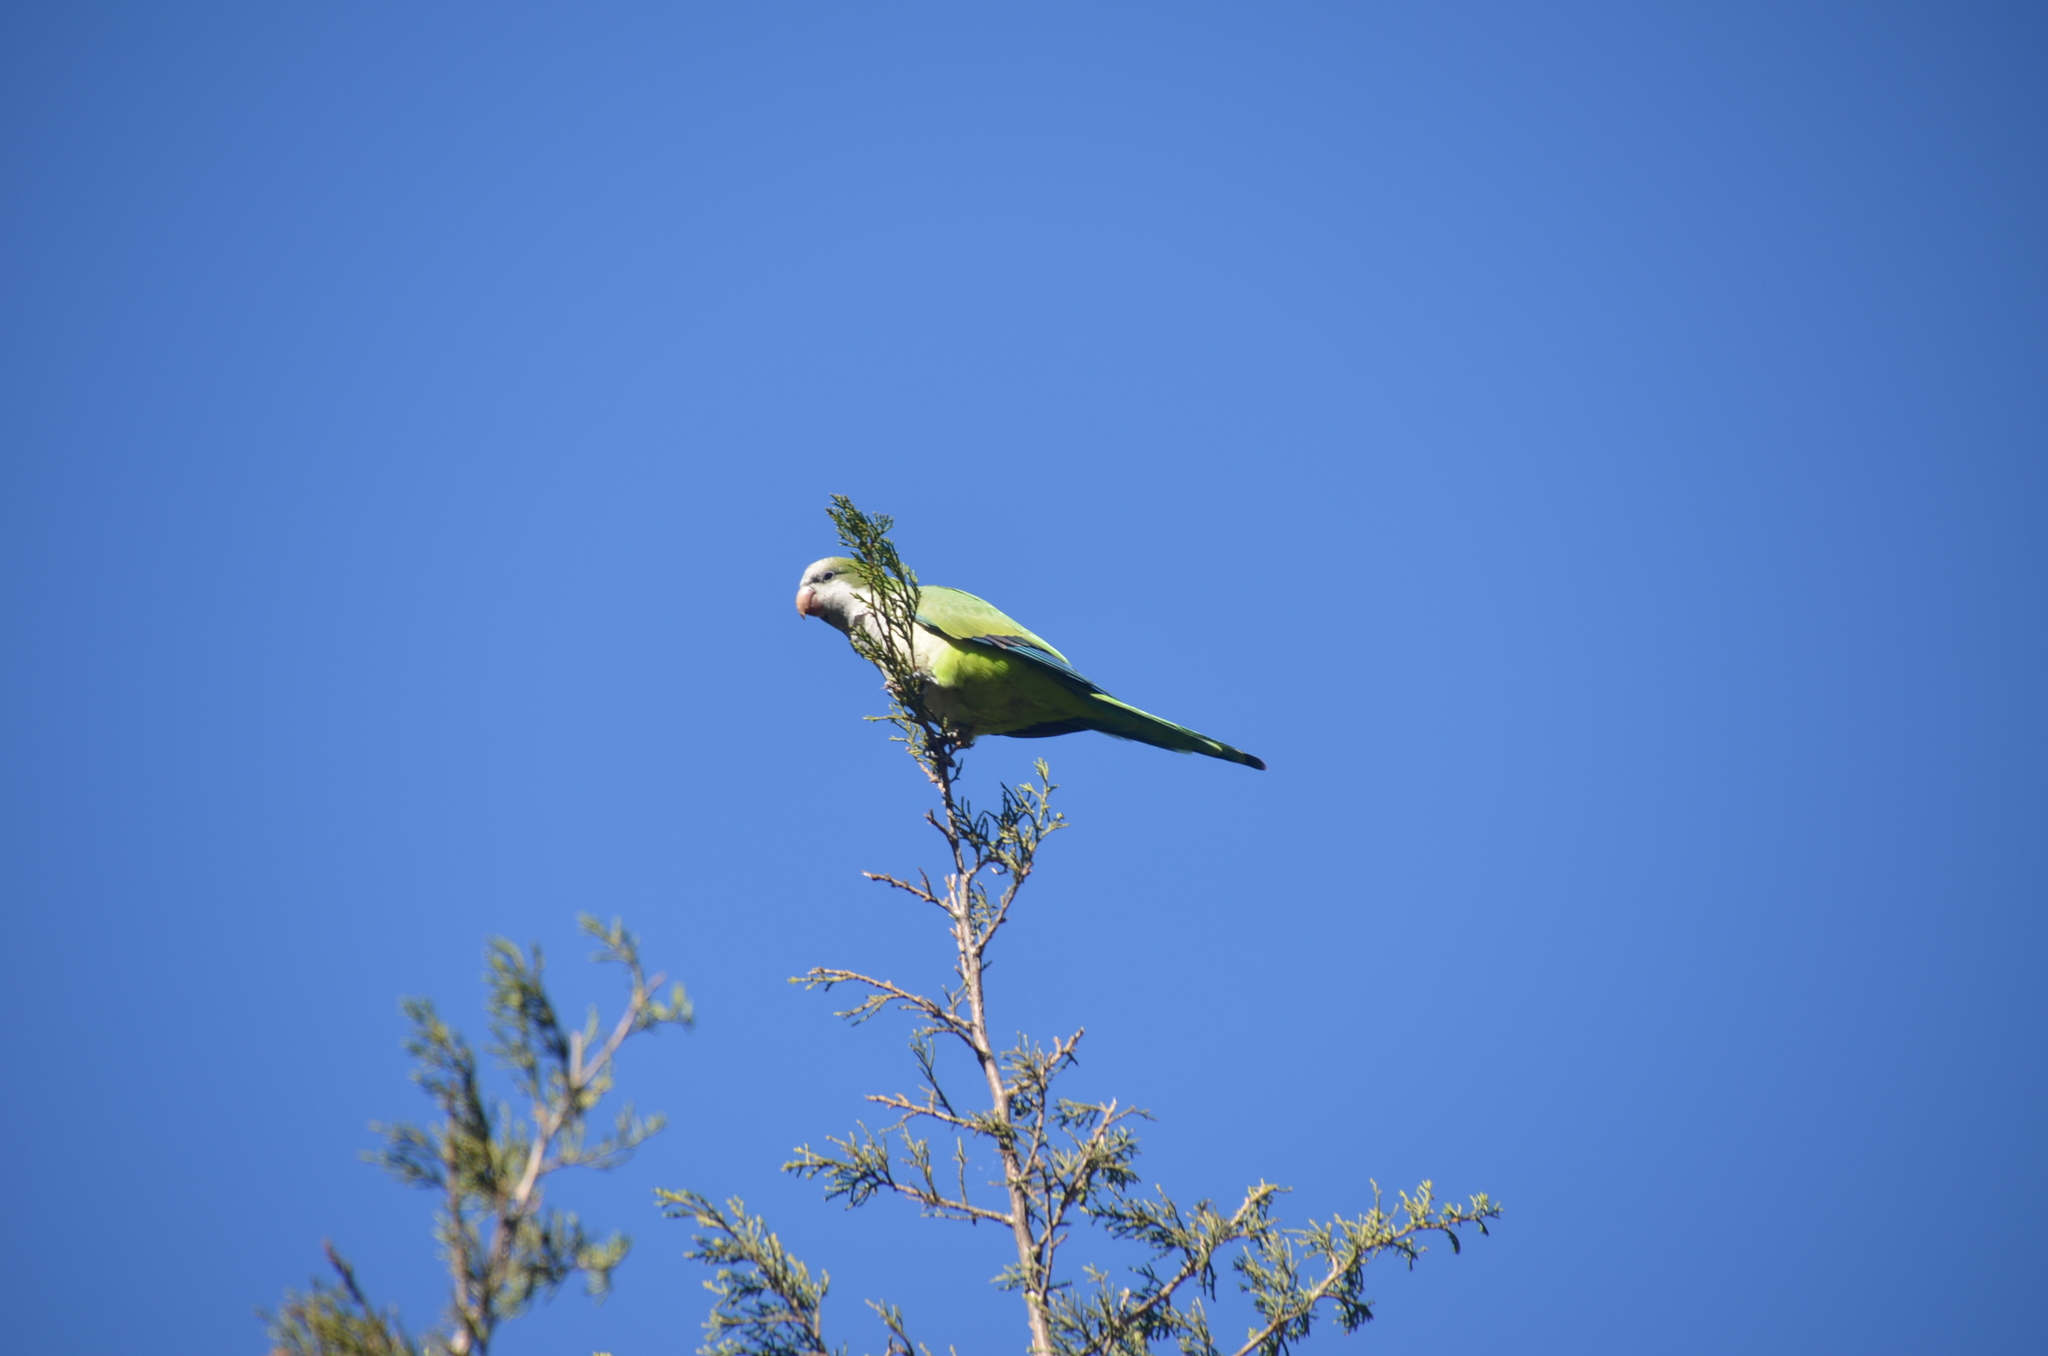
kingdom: Animalia
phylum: Chordata
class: Aves
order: Psittaciformes
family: Psittacidae
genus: Myiopsitta
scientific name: Myiopsitta monachus
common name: Monk parakeet
